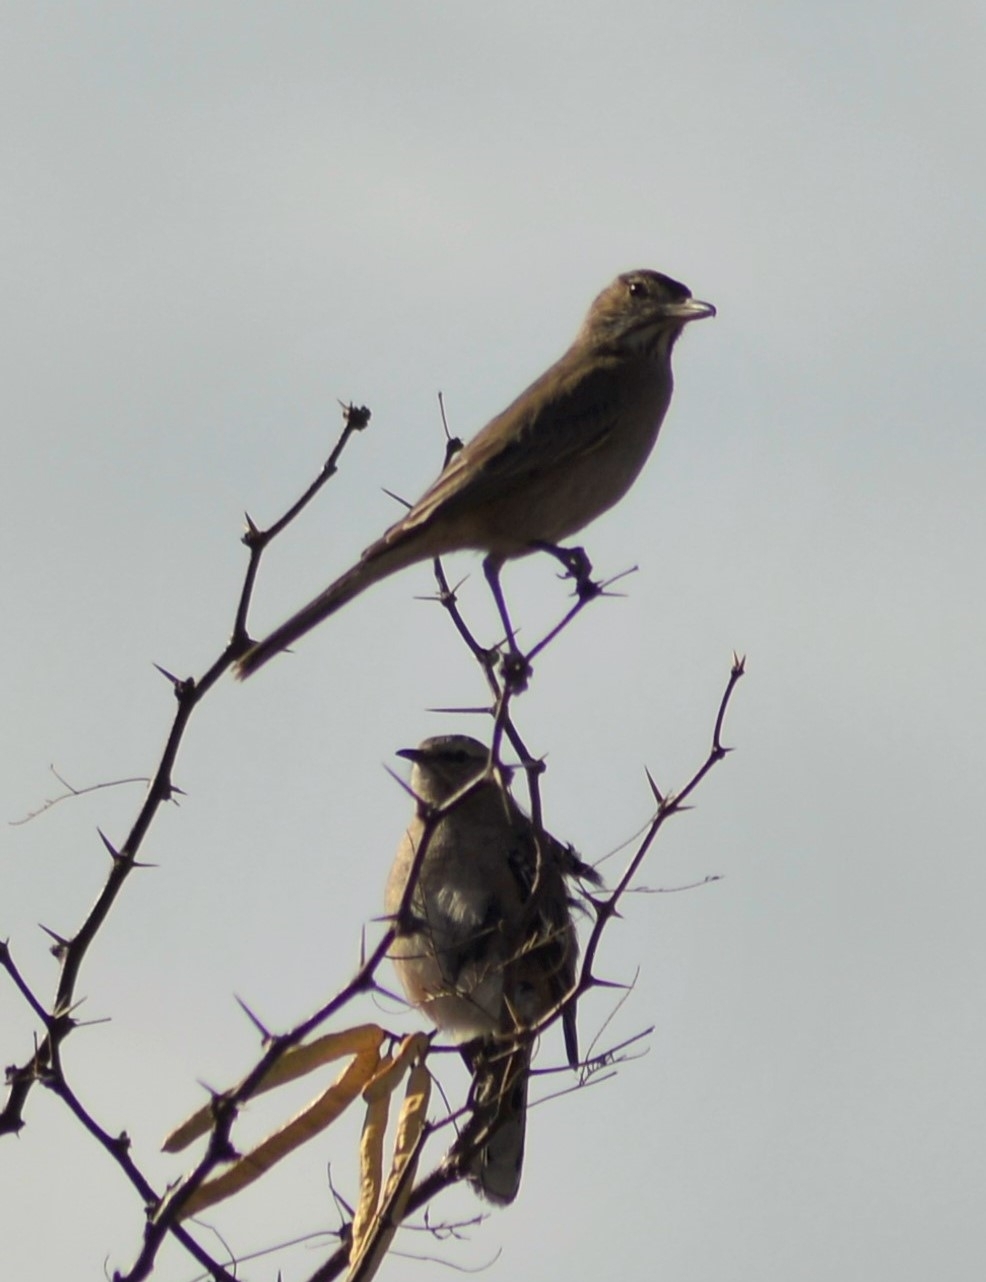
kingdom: Animalia
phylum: Chordata
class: Aves
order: Passeriformes
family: Tyrannidae
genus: Agriornis
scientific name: Agriornis micropterus
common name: Grey-bellied shrike-tyrant
